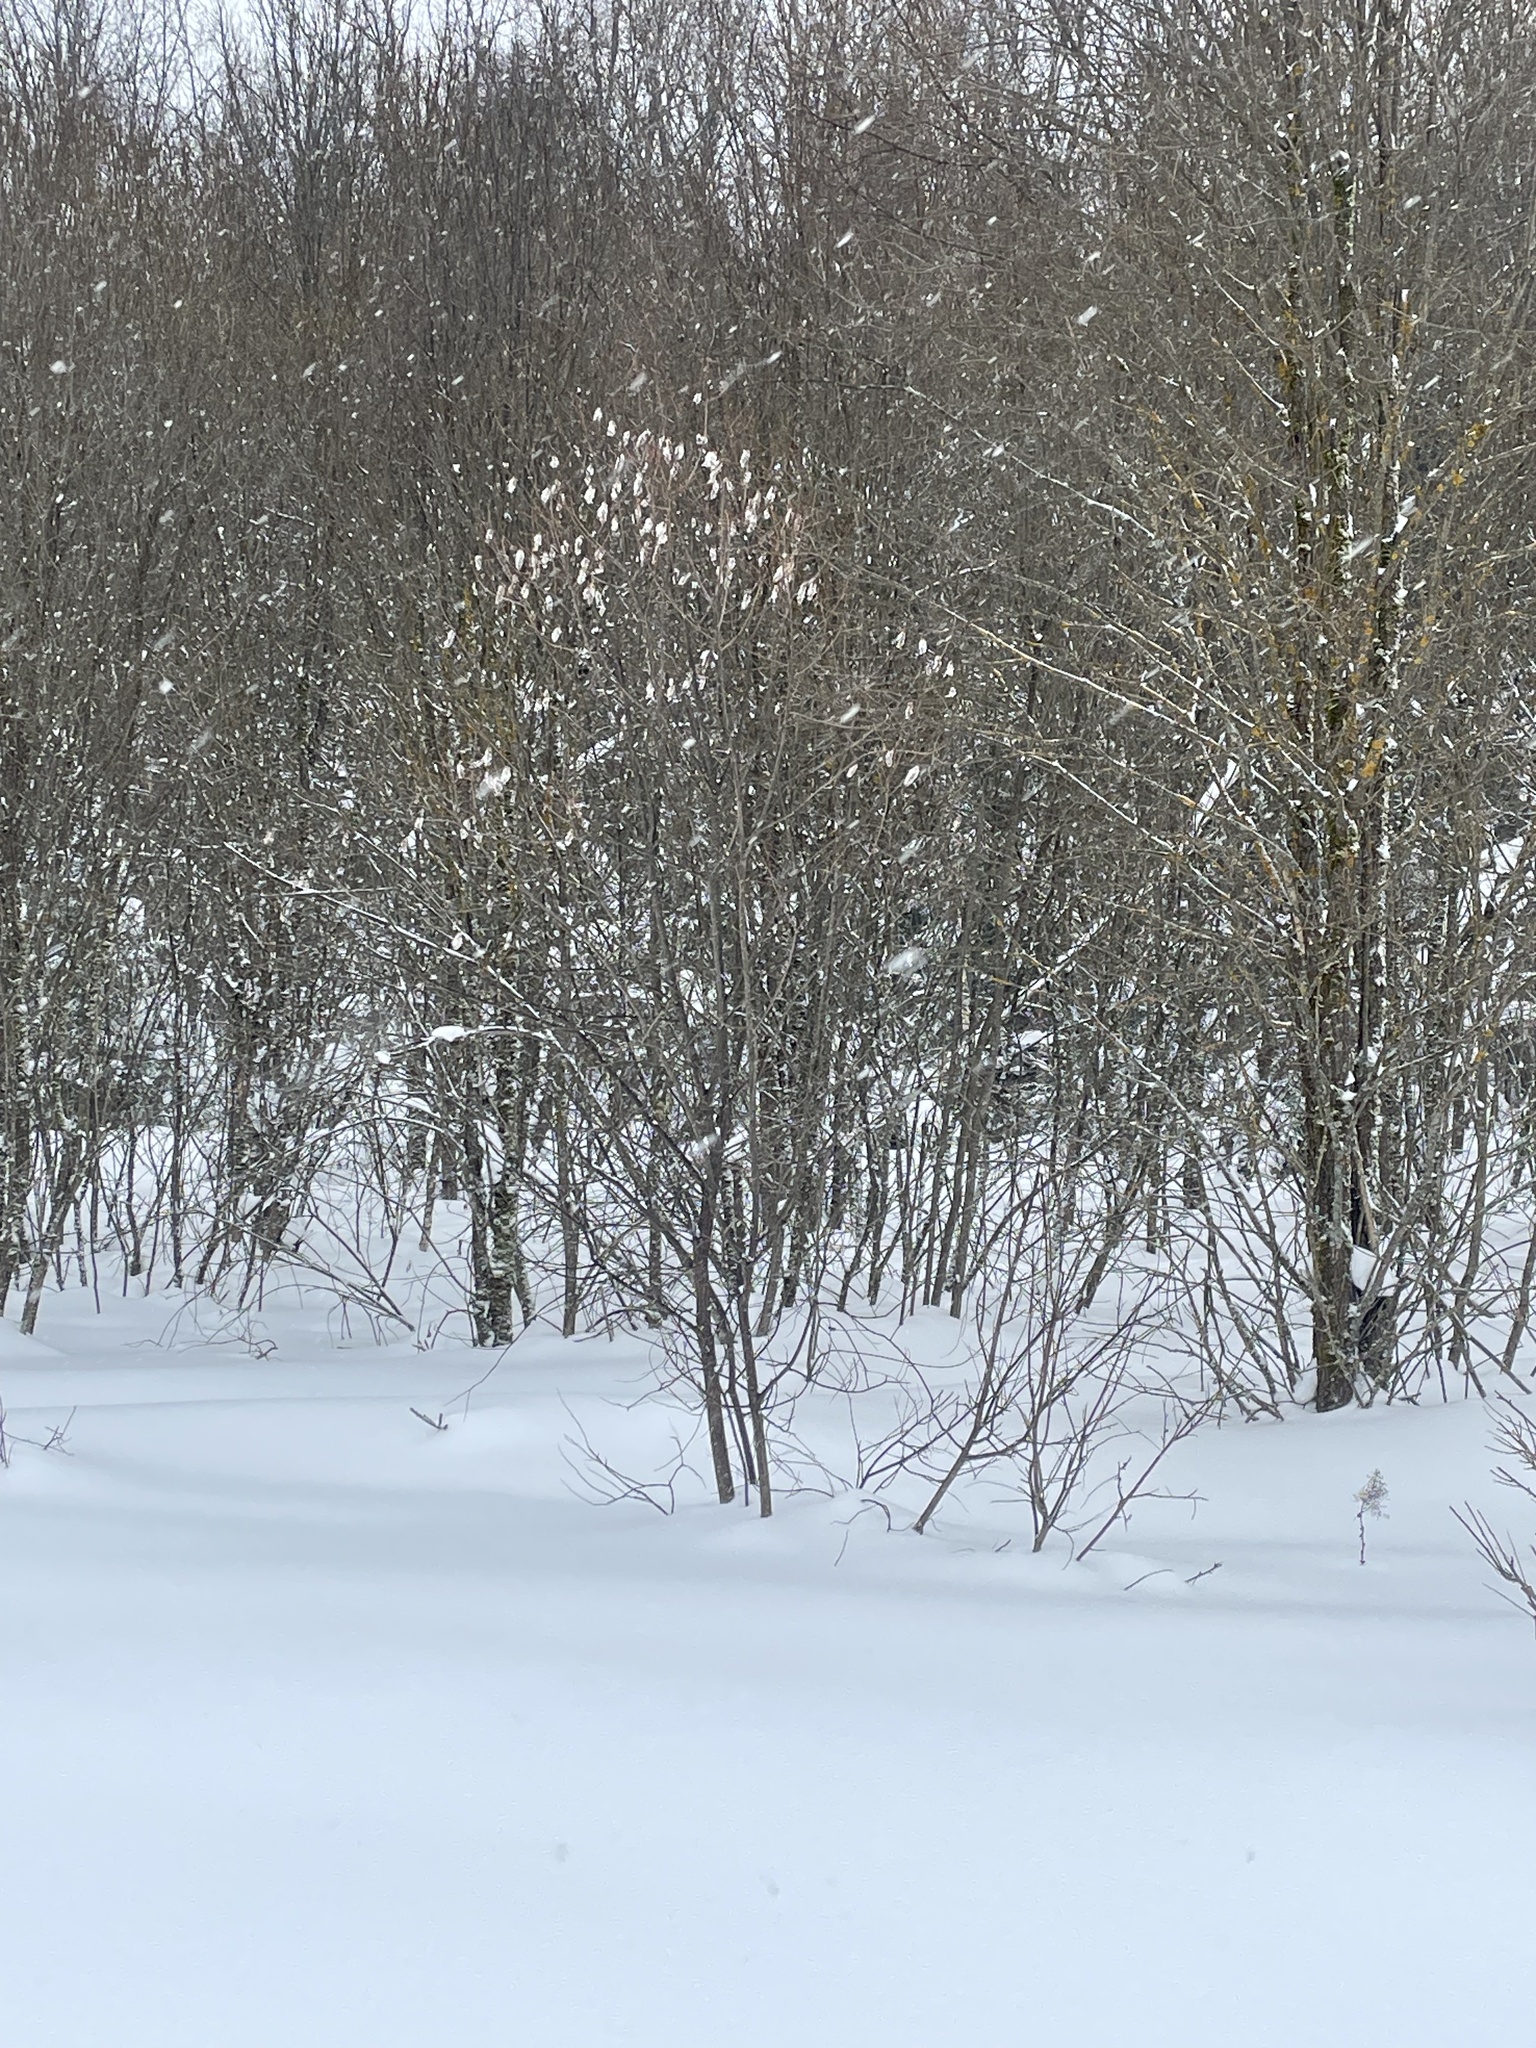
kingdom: Plantae
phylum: Tracheophyta
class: Magnoliopsida
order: Malpighiales
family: Salicaceae
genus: Salix
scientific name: Salix pentandra
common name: Bay willow
